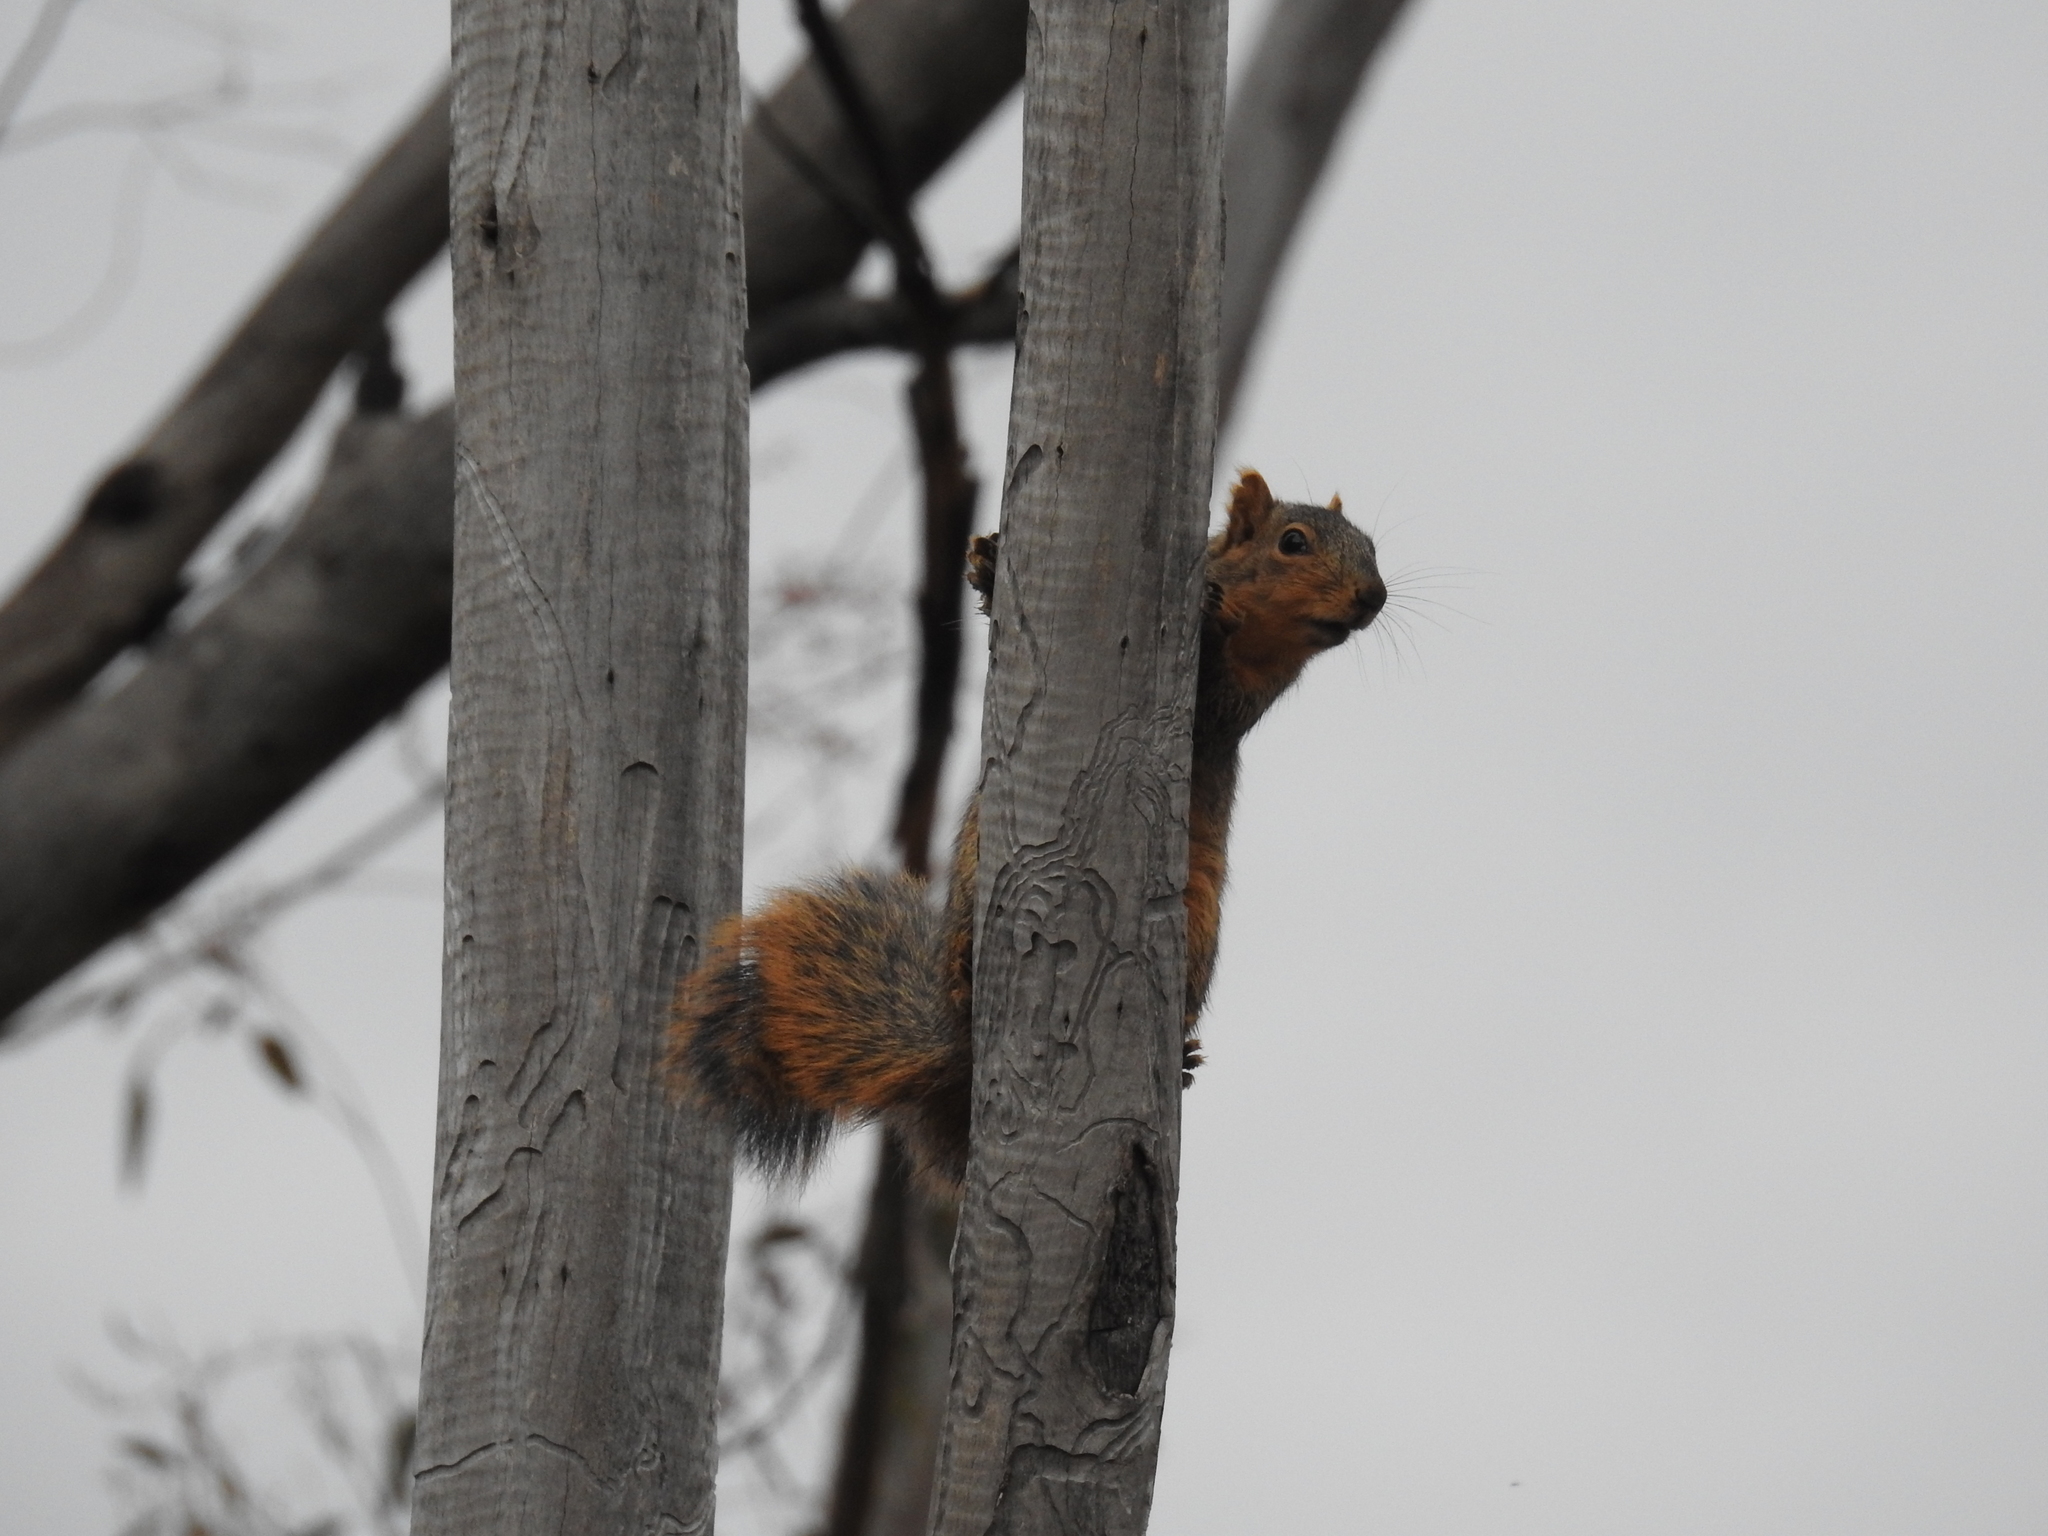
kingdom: Animalia
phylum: Chordata
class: Mammalia
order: Rodentia
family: Sciuridae
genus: Sciurus
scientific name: Sciurus niger
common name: Fox squirrel
